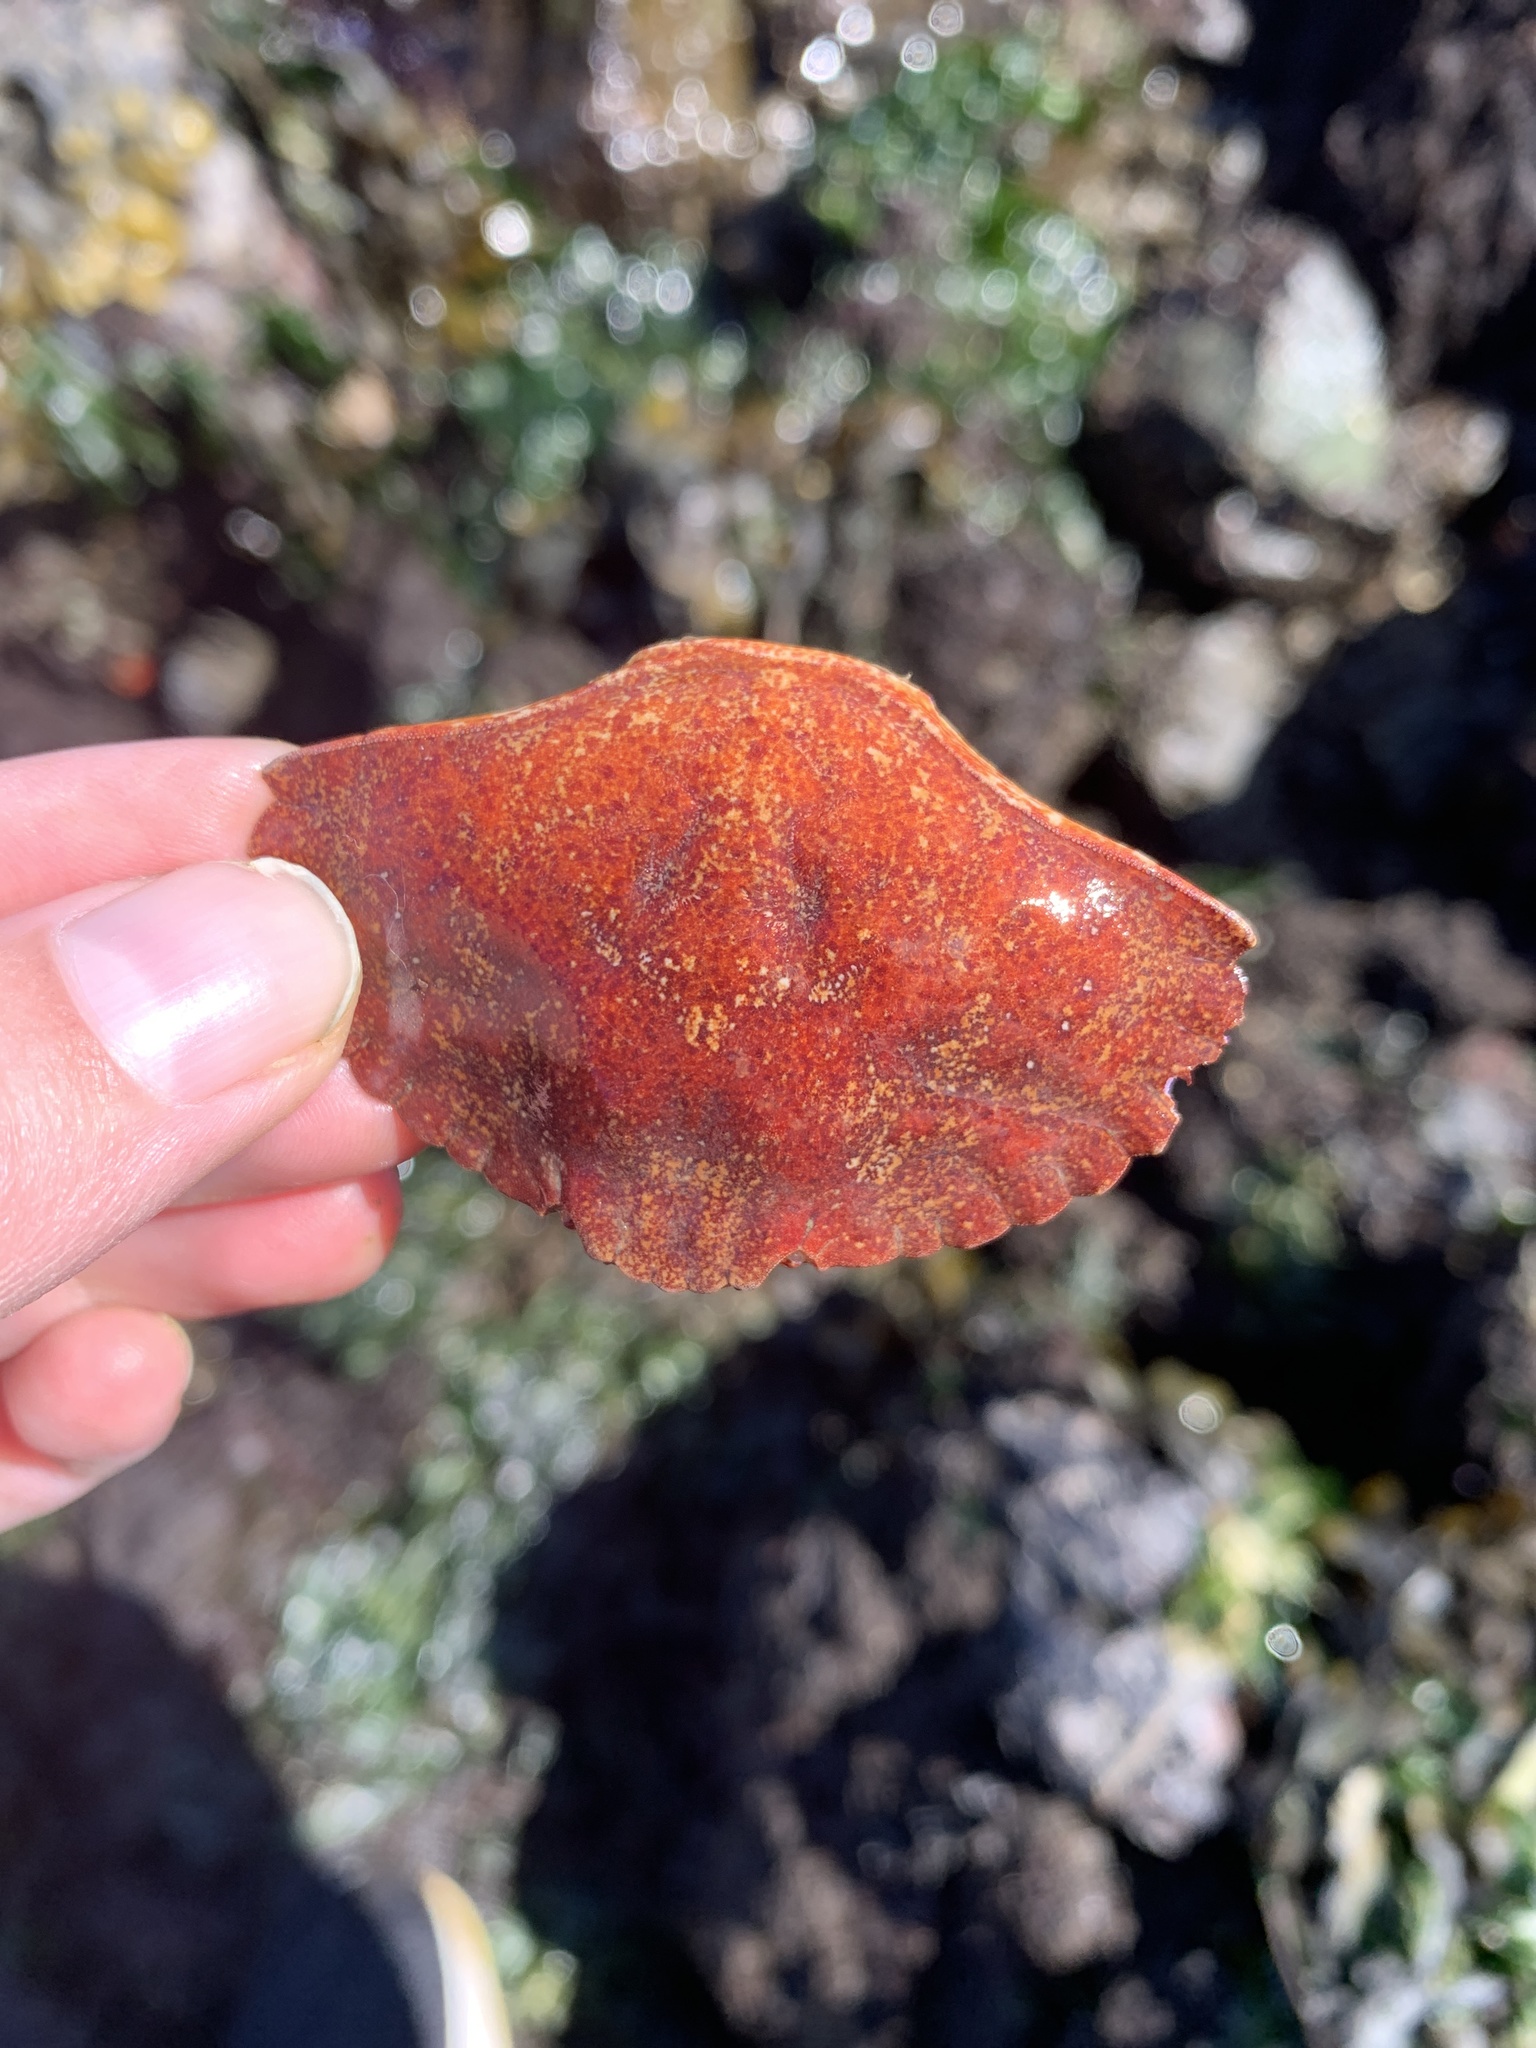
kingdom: Animalia
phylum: Arthropoda
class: Malacostraca
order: Decapoda
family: Cancridae
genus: Cancer
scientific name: Cancer productus
